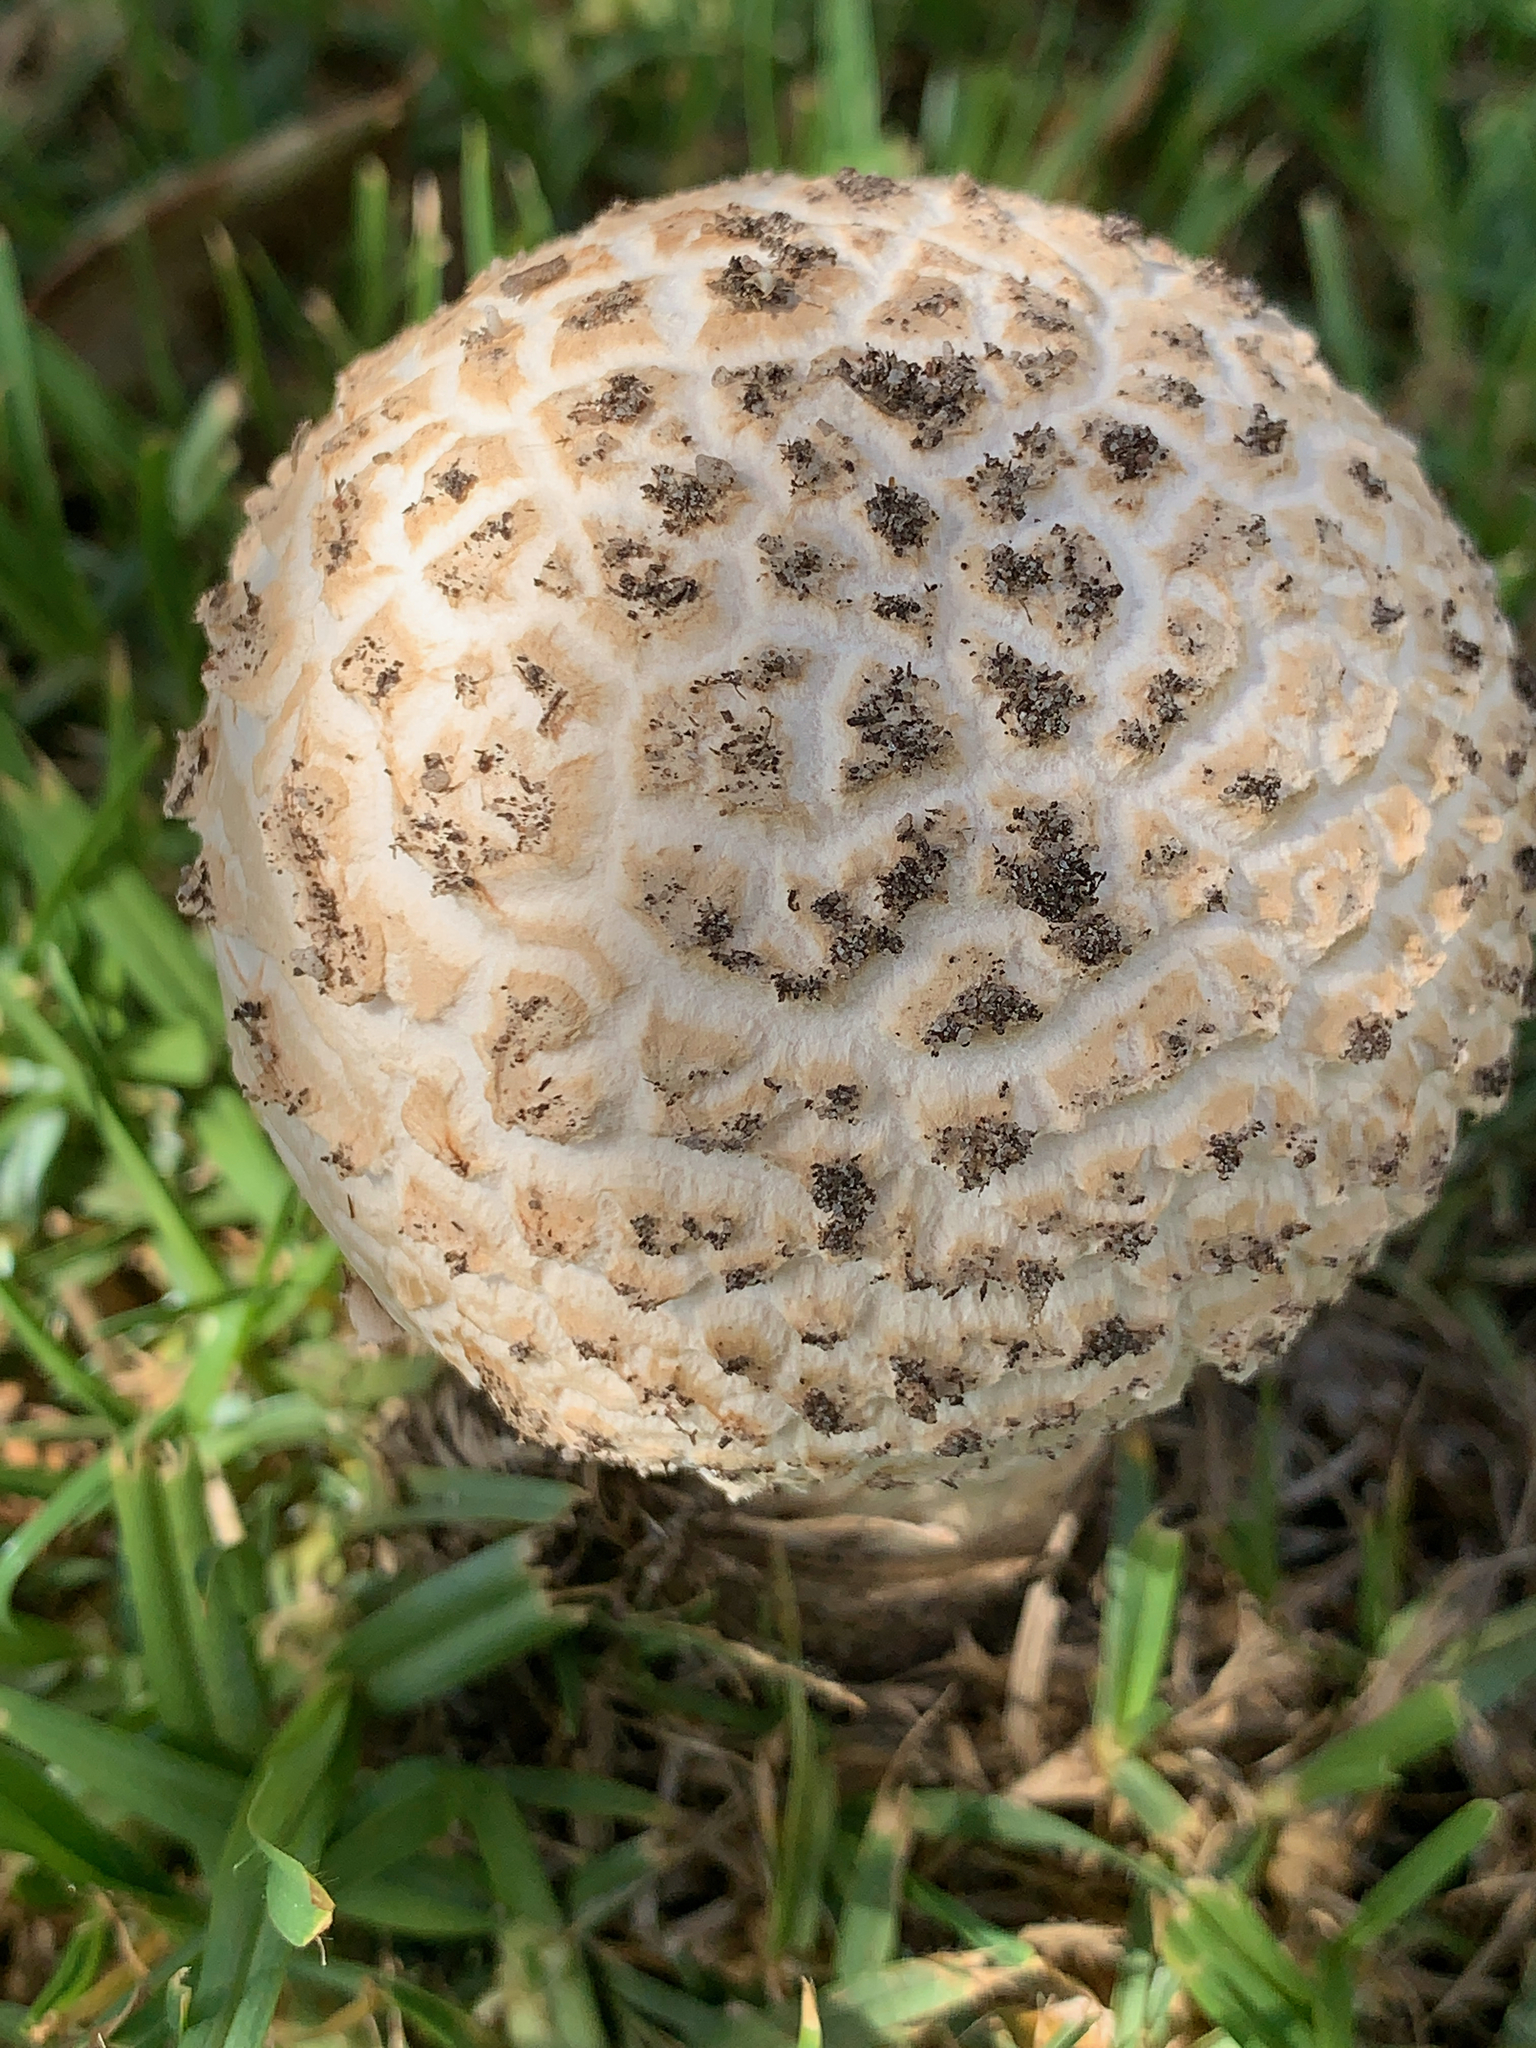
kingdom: Fungi
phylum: Basidiomycota
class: Agaricomycetes
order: Agaricales
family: Amanitaceae
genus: Amanita
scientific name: Amanita foetidissima
